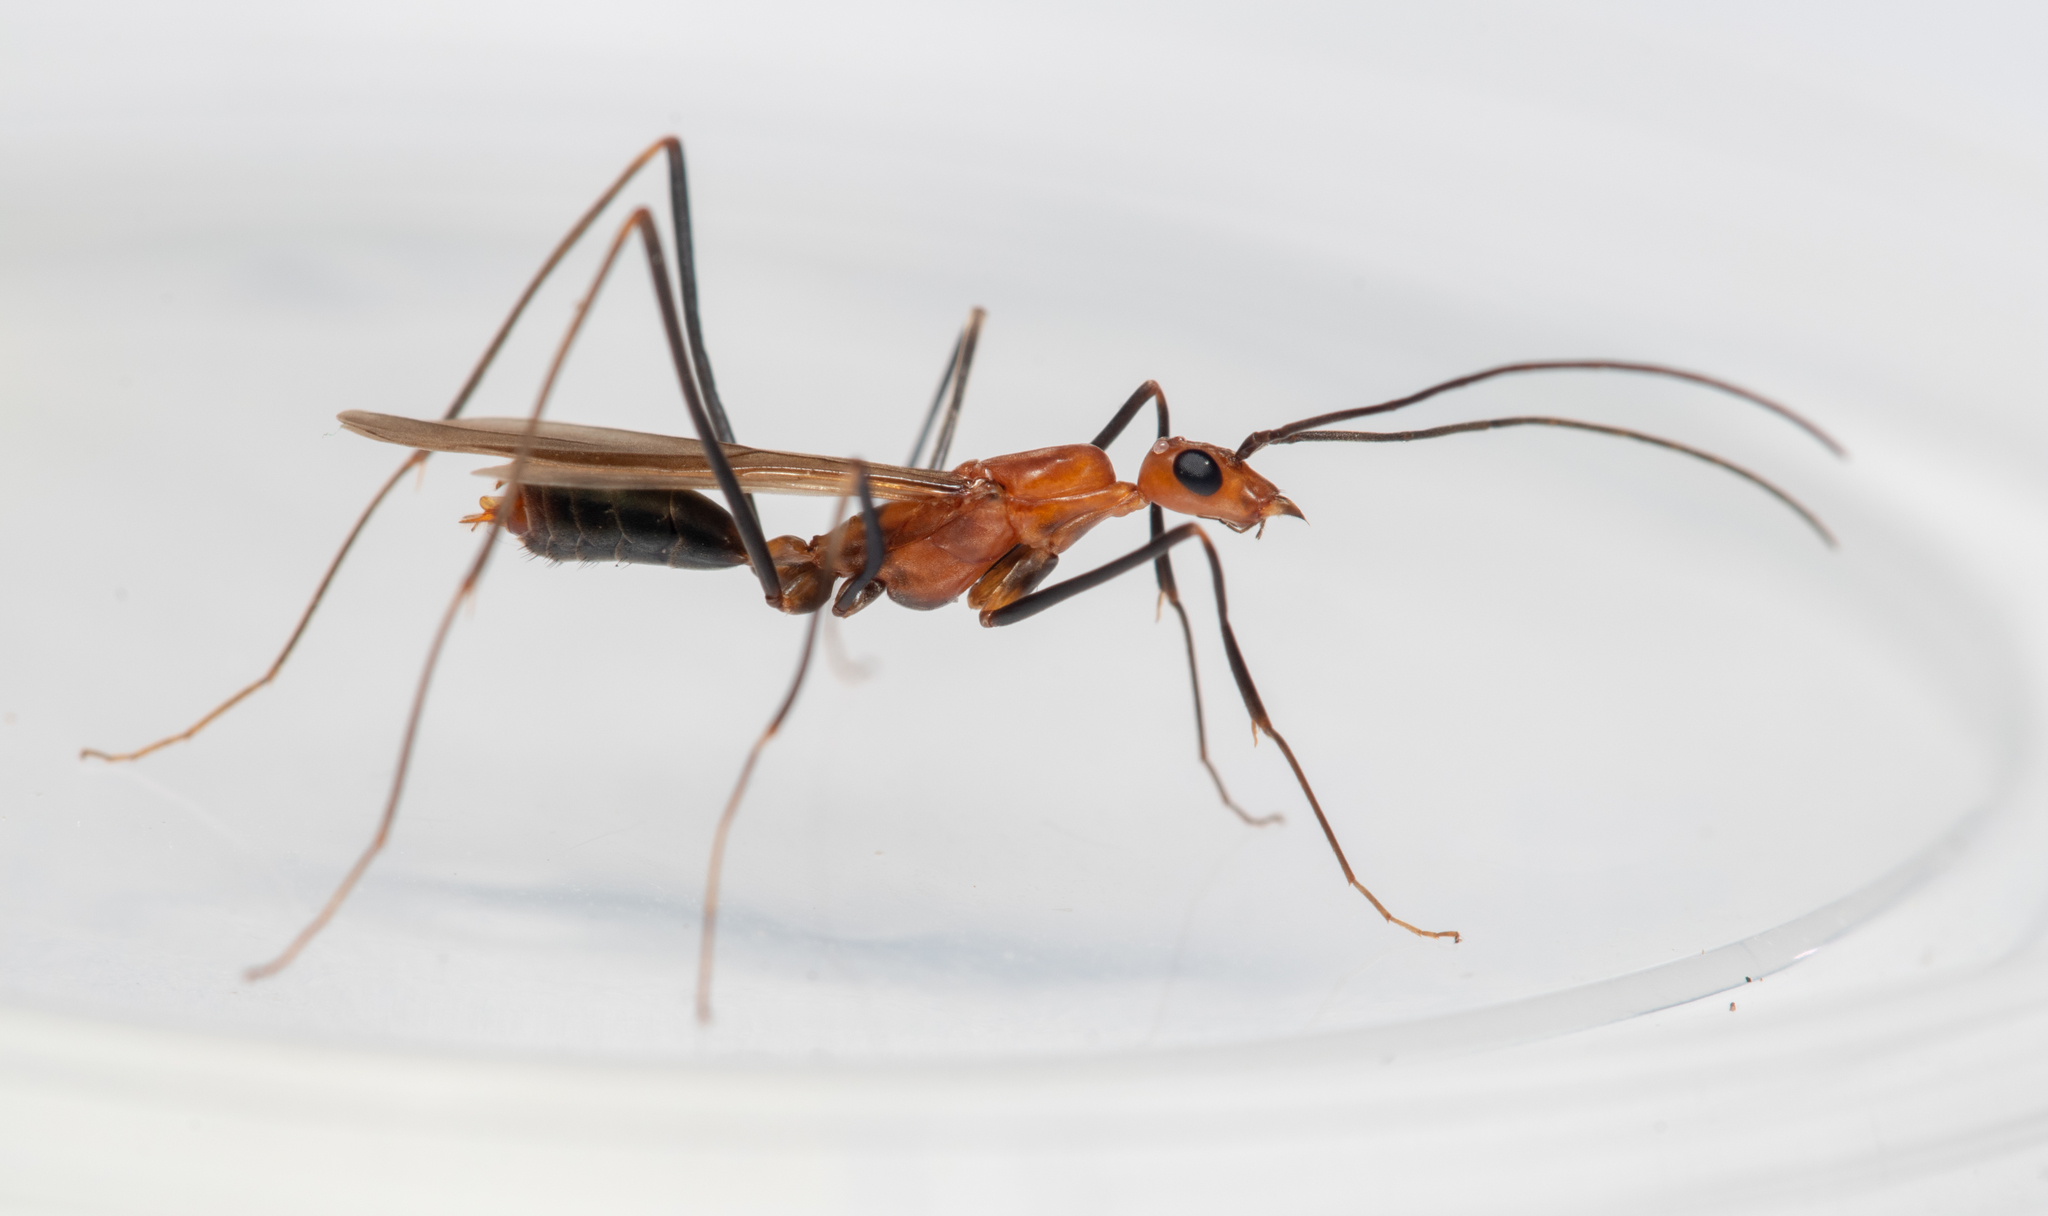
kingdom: Animalia
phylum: Arthropoda
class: Insecta
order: Hymenoptera
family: Formicidae
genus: Leptomyrmex
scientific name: Leptomyrmex varians
